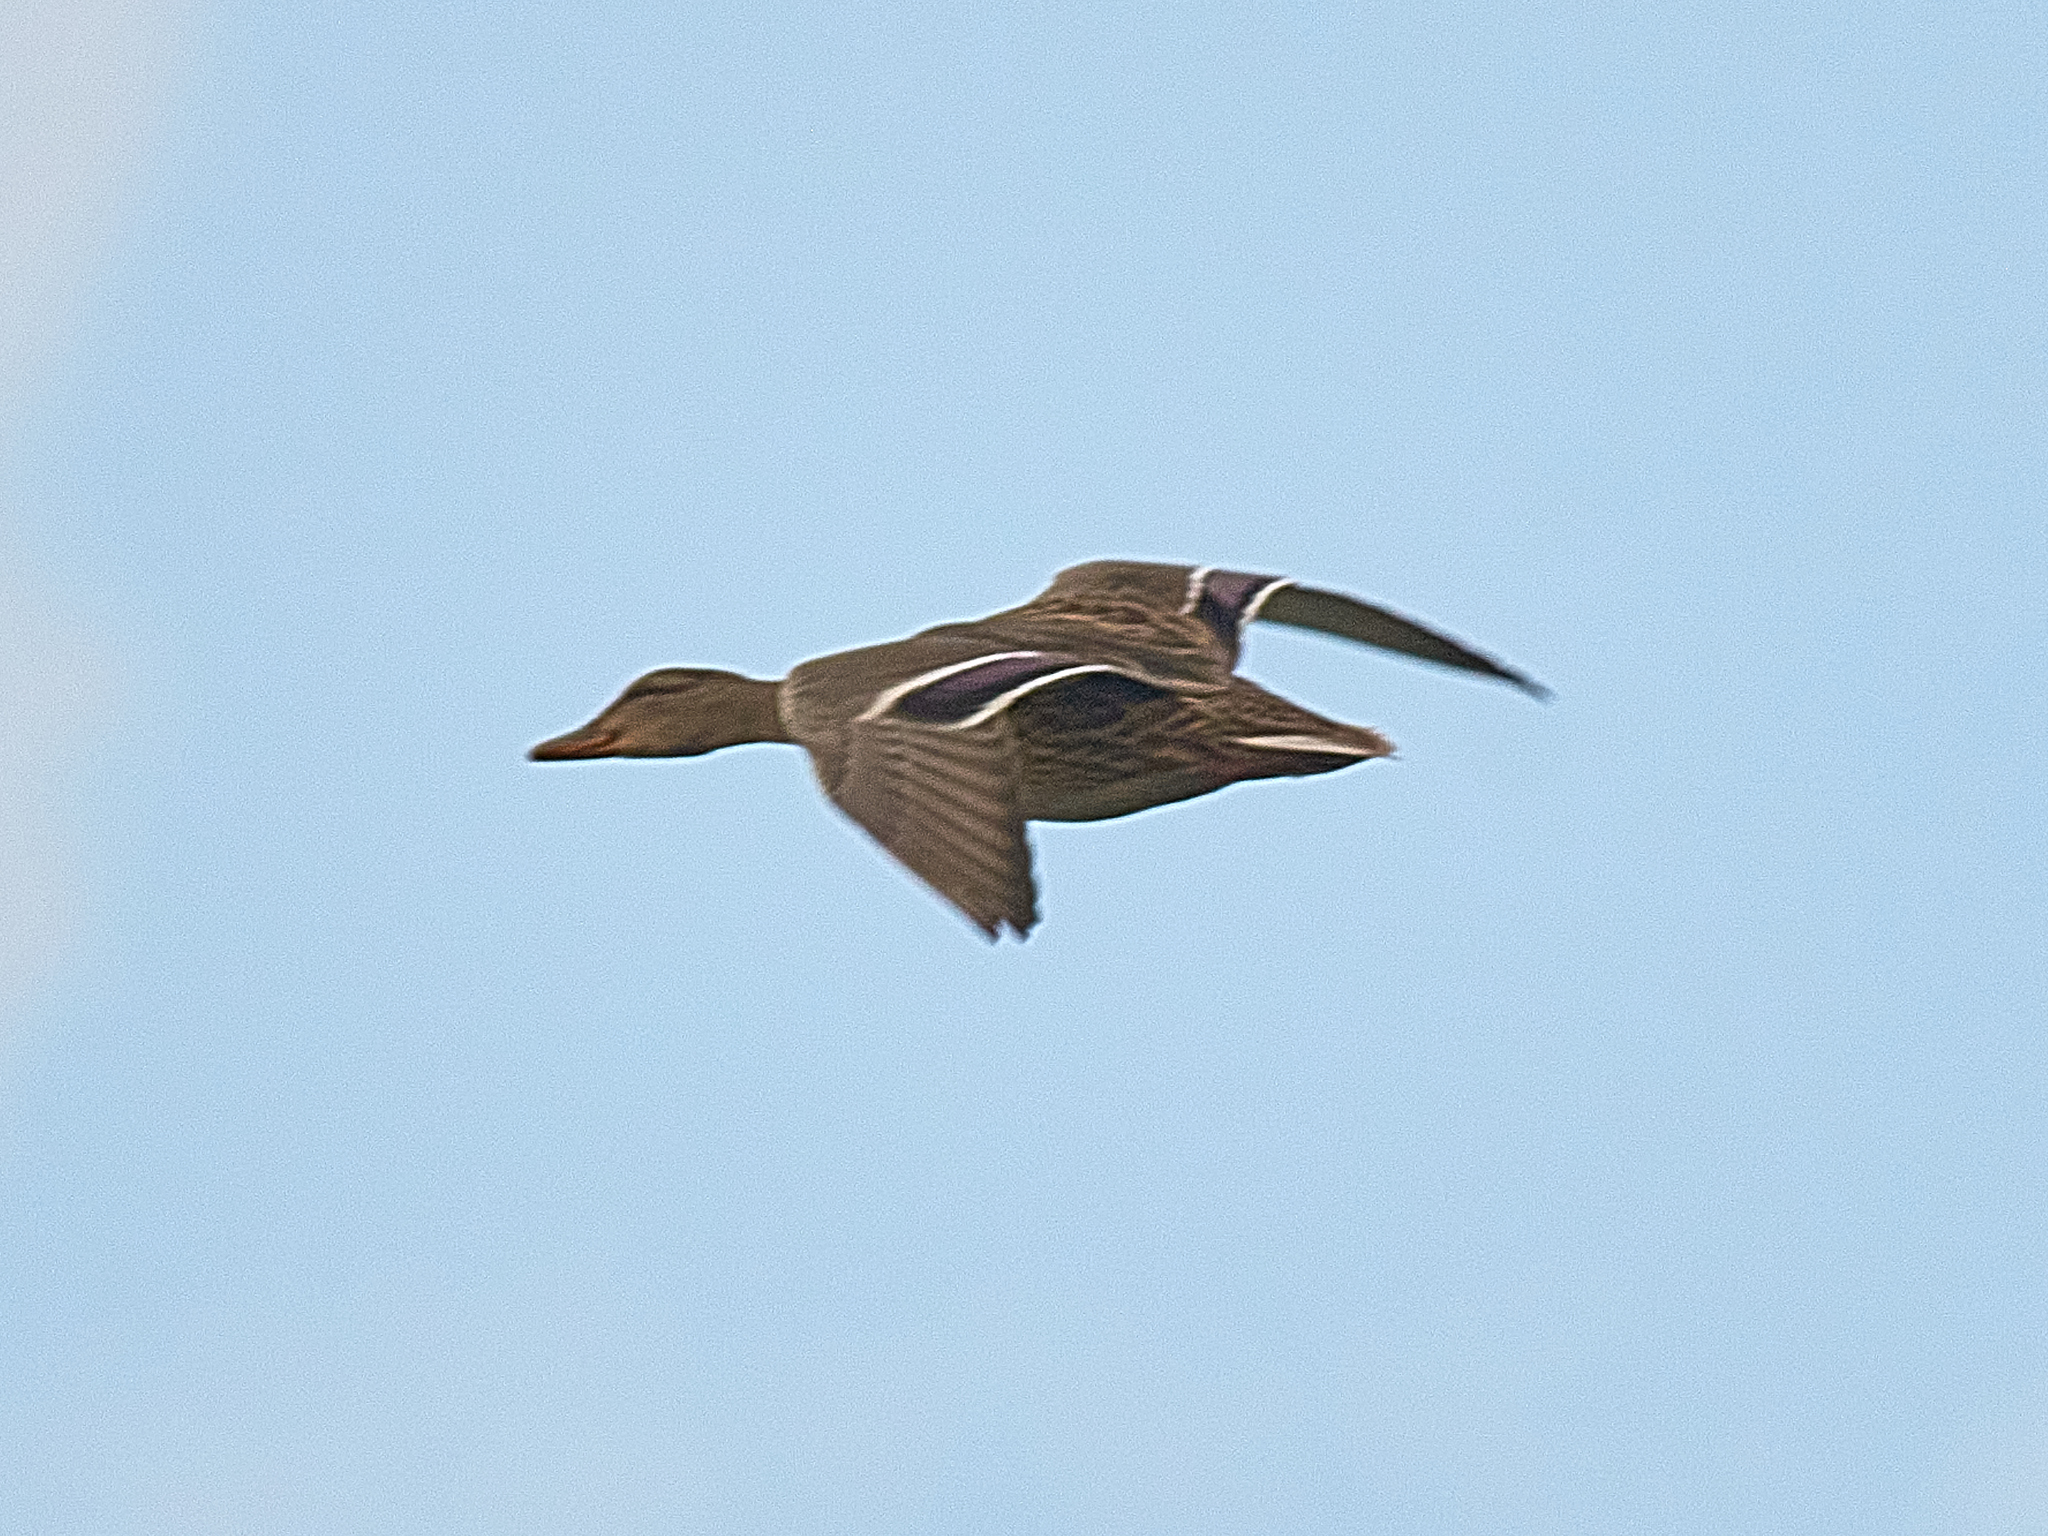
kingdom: Animalia
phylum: Chordata
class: Aves
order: Anseriformes
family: Anatidae
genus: Anas
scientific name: Anas platyrhynchos
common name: Mallard
